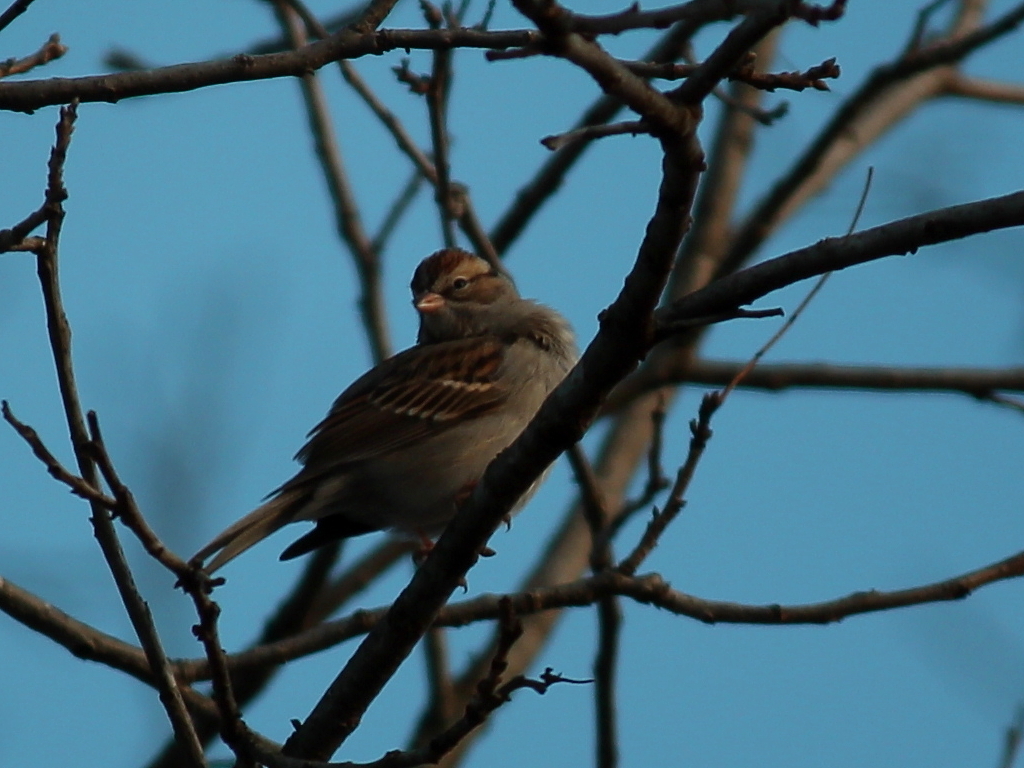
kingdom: Animalia
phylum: Chordata
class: Aves
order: Passeriformes
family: Passerellidae
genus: Spizella
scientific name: Spizella passerina
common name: Chipping sparrow
